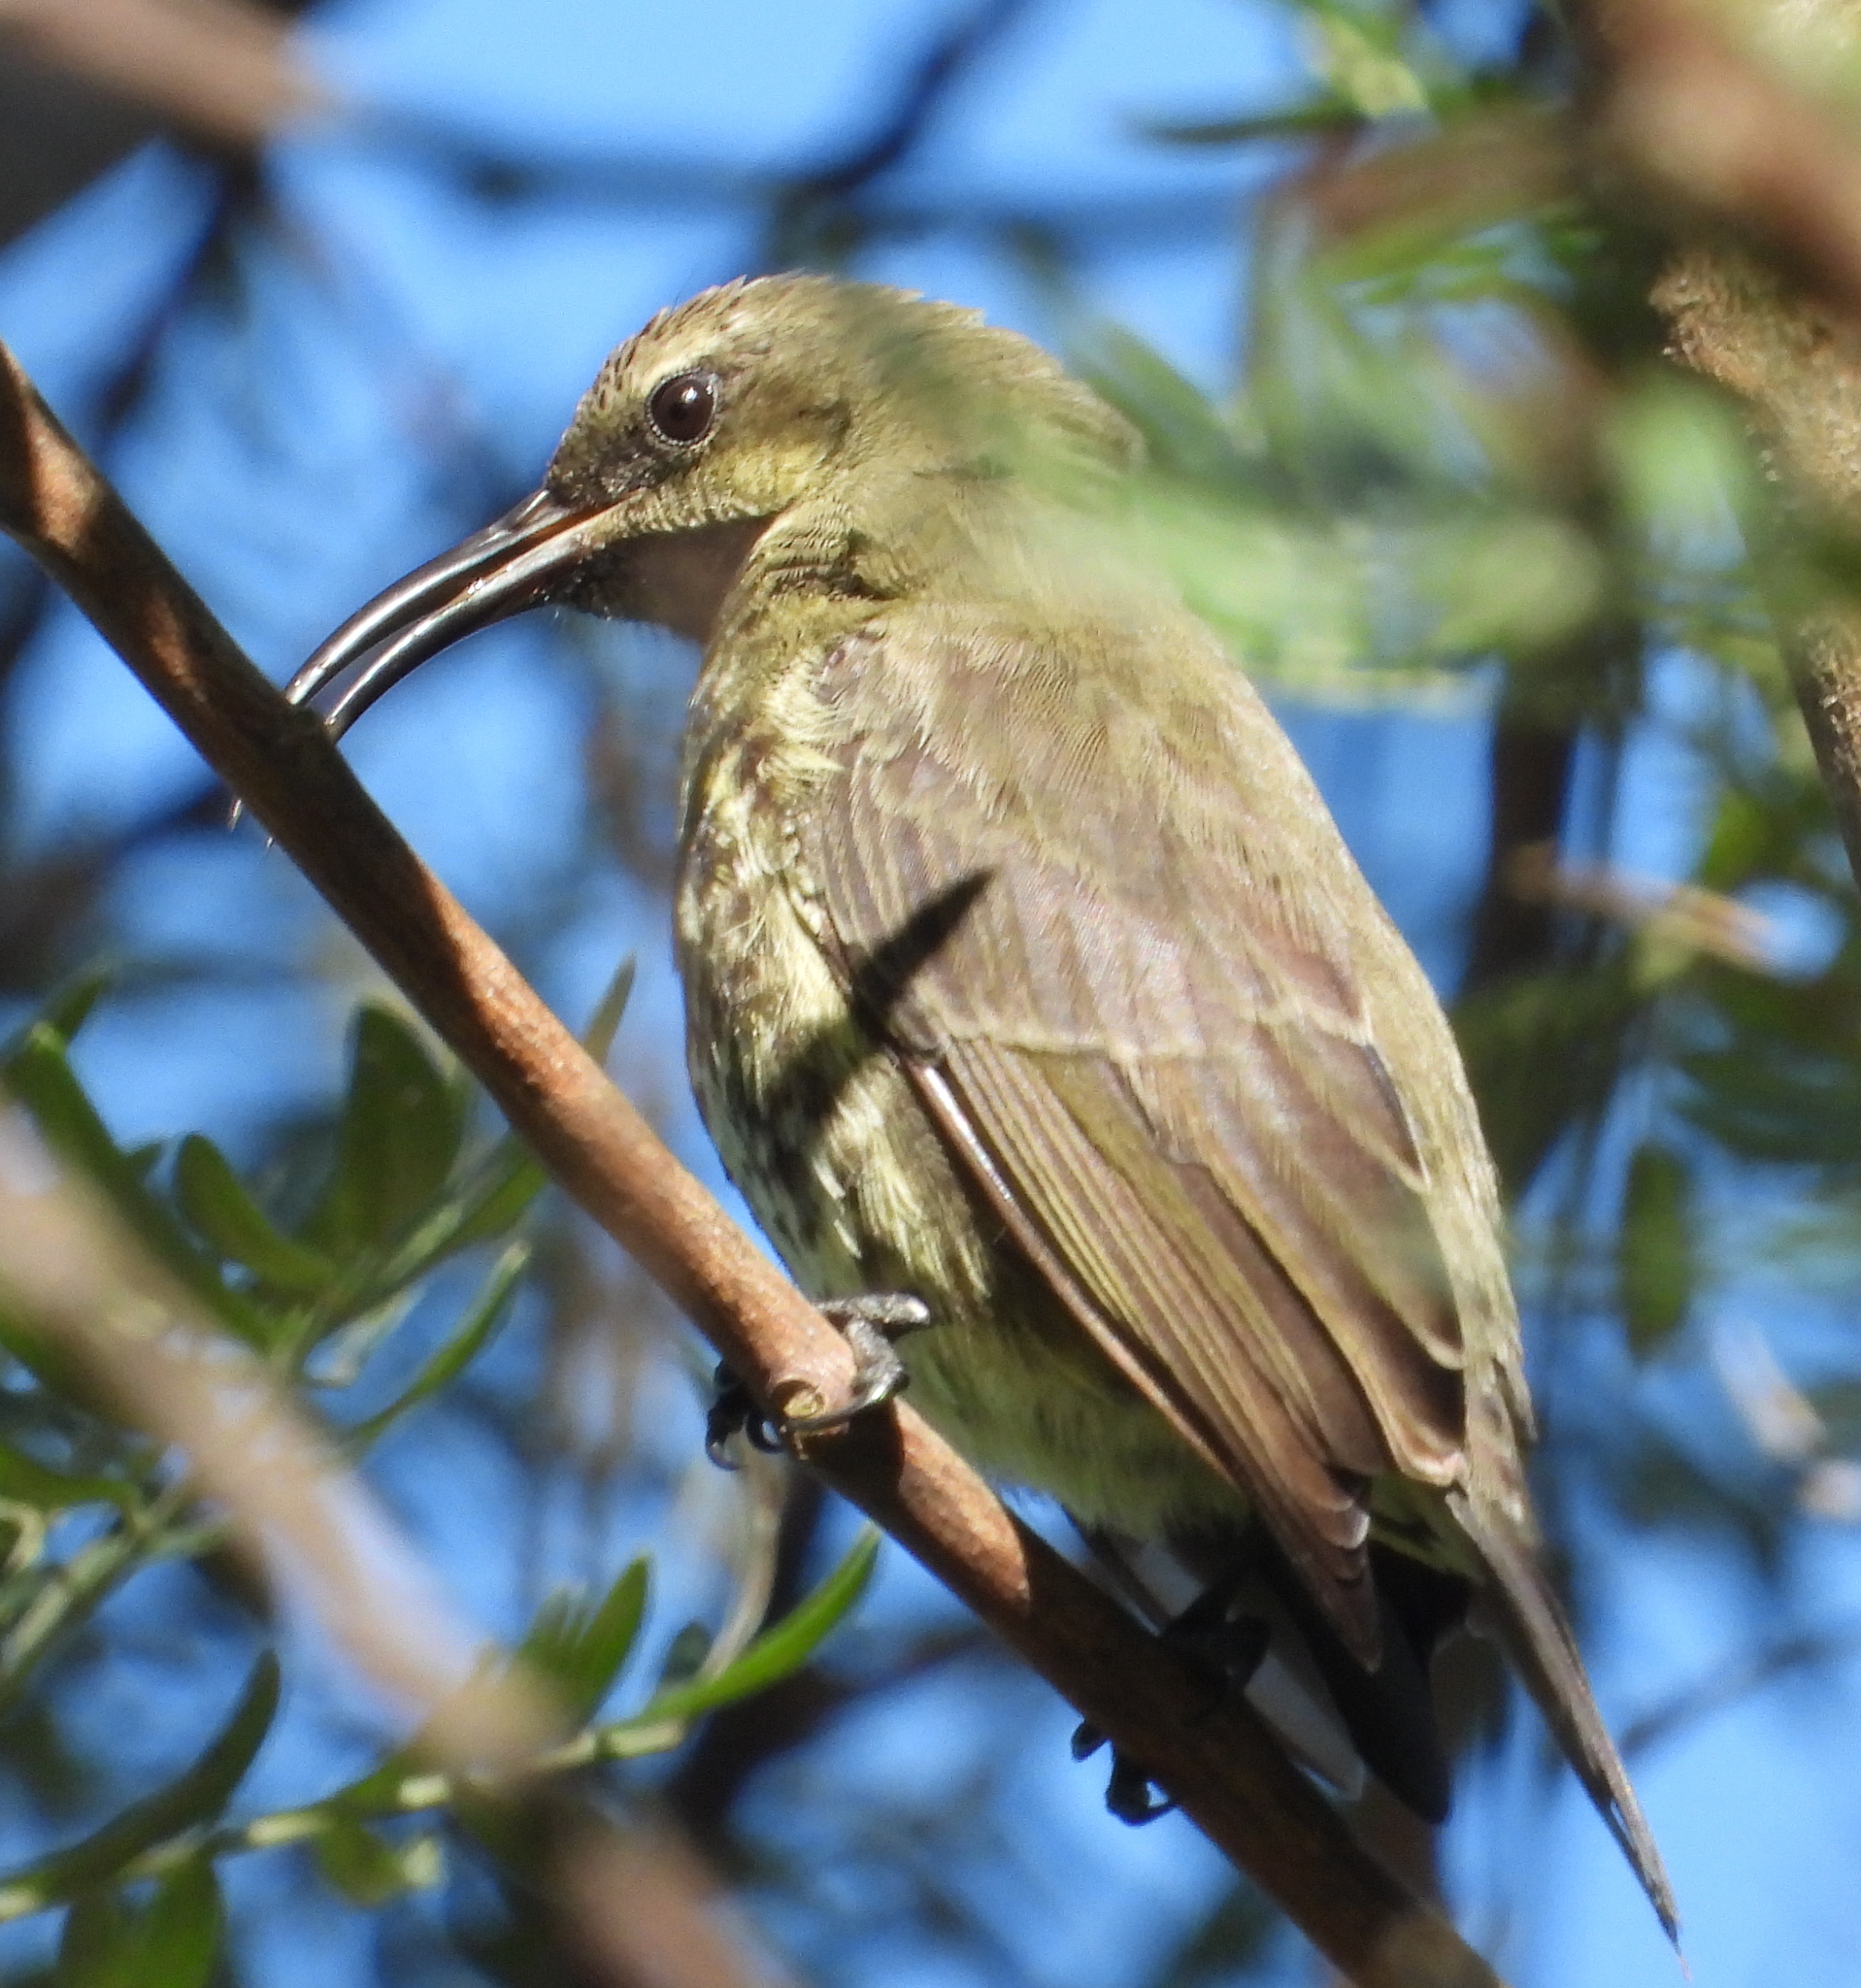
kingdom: Animalia
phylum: Chordata
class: Aves
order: Passeriformes
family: Nectariniidae
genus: Chalcomitra
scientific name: Chalcomitra amethystina
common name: Amethyst sunbird
